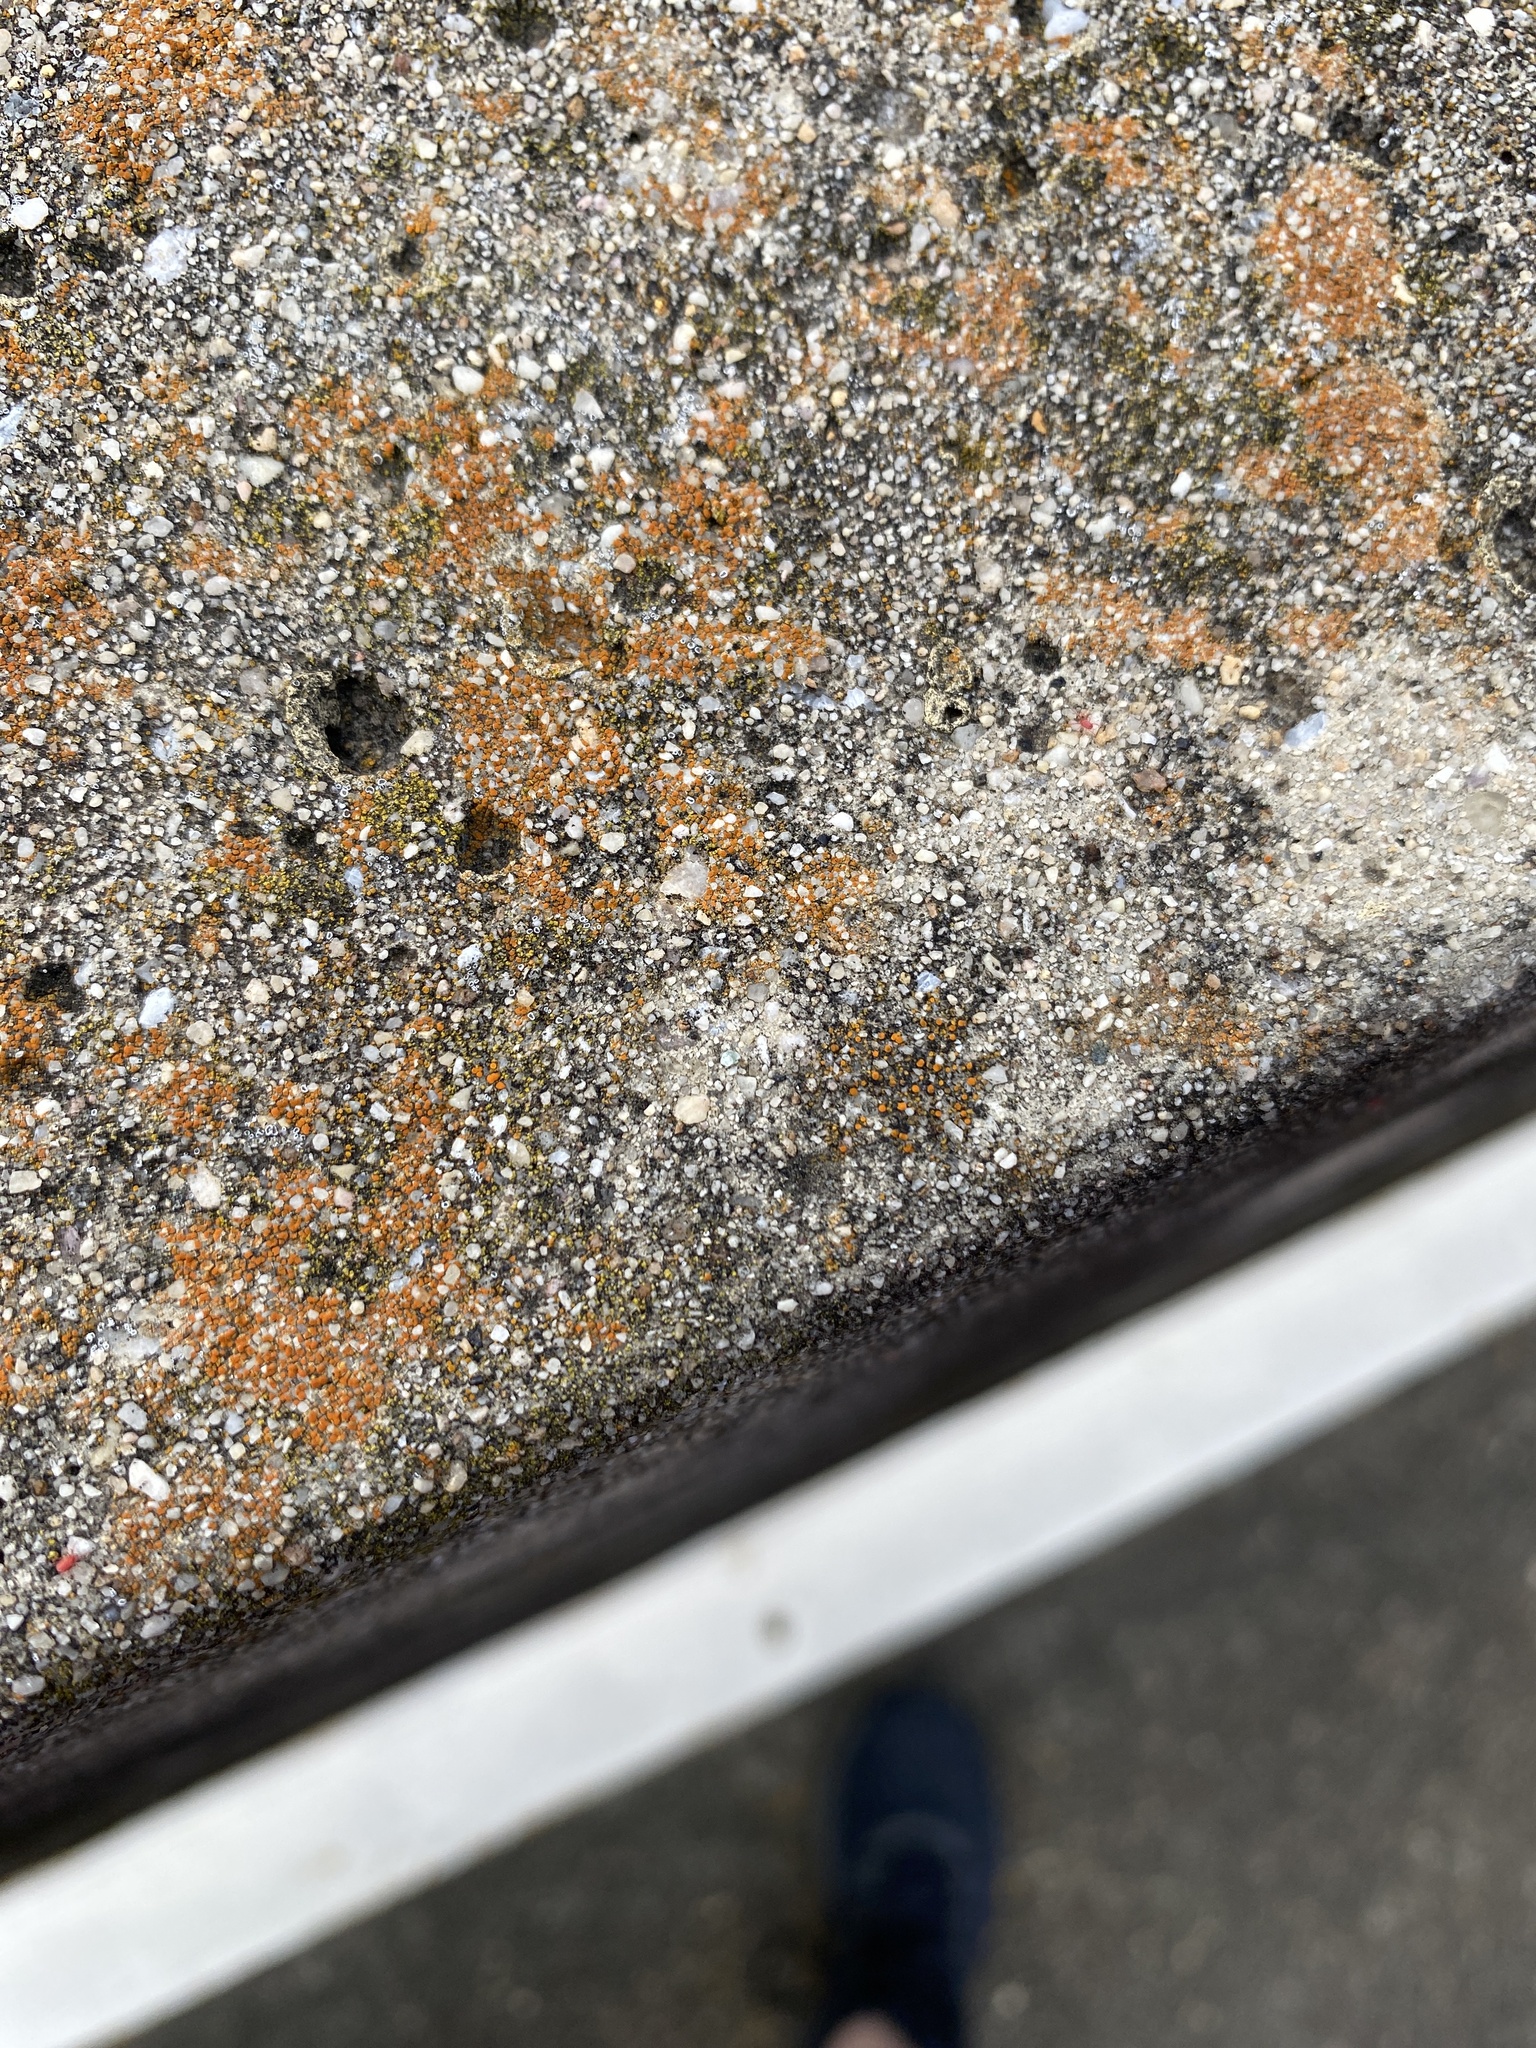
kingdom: Fungi
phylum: Ascomycota
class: Lecanoromycetes
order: Teloschistales
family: Teloschistaceae
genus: Xanthocarpia
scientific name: Xanthocarpia feracissima
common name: Sidewalk firedot
